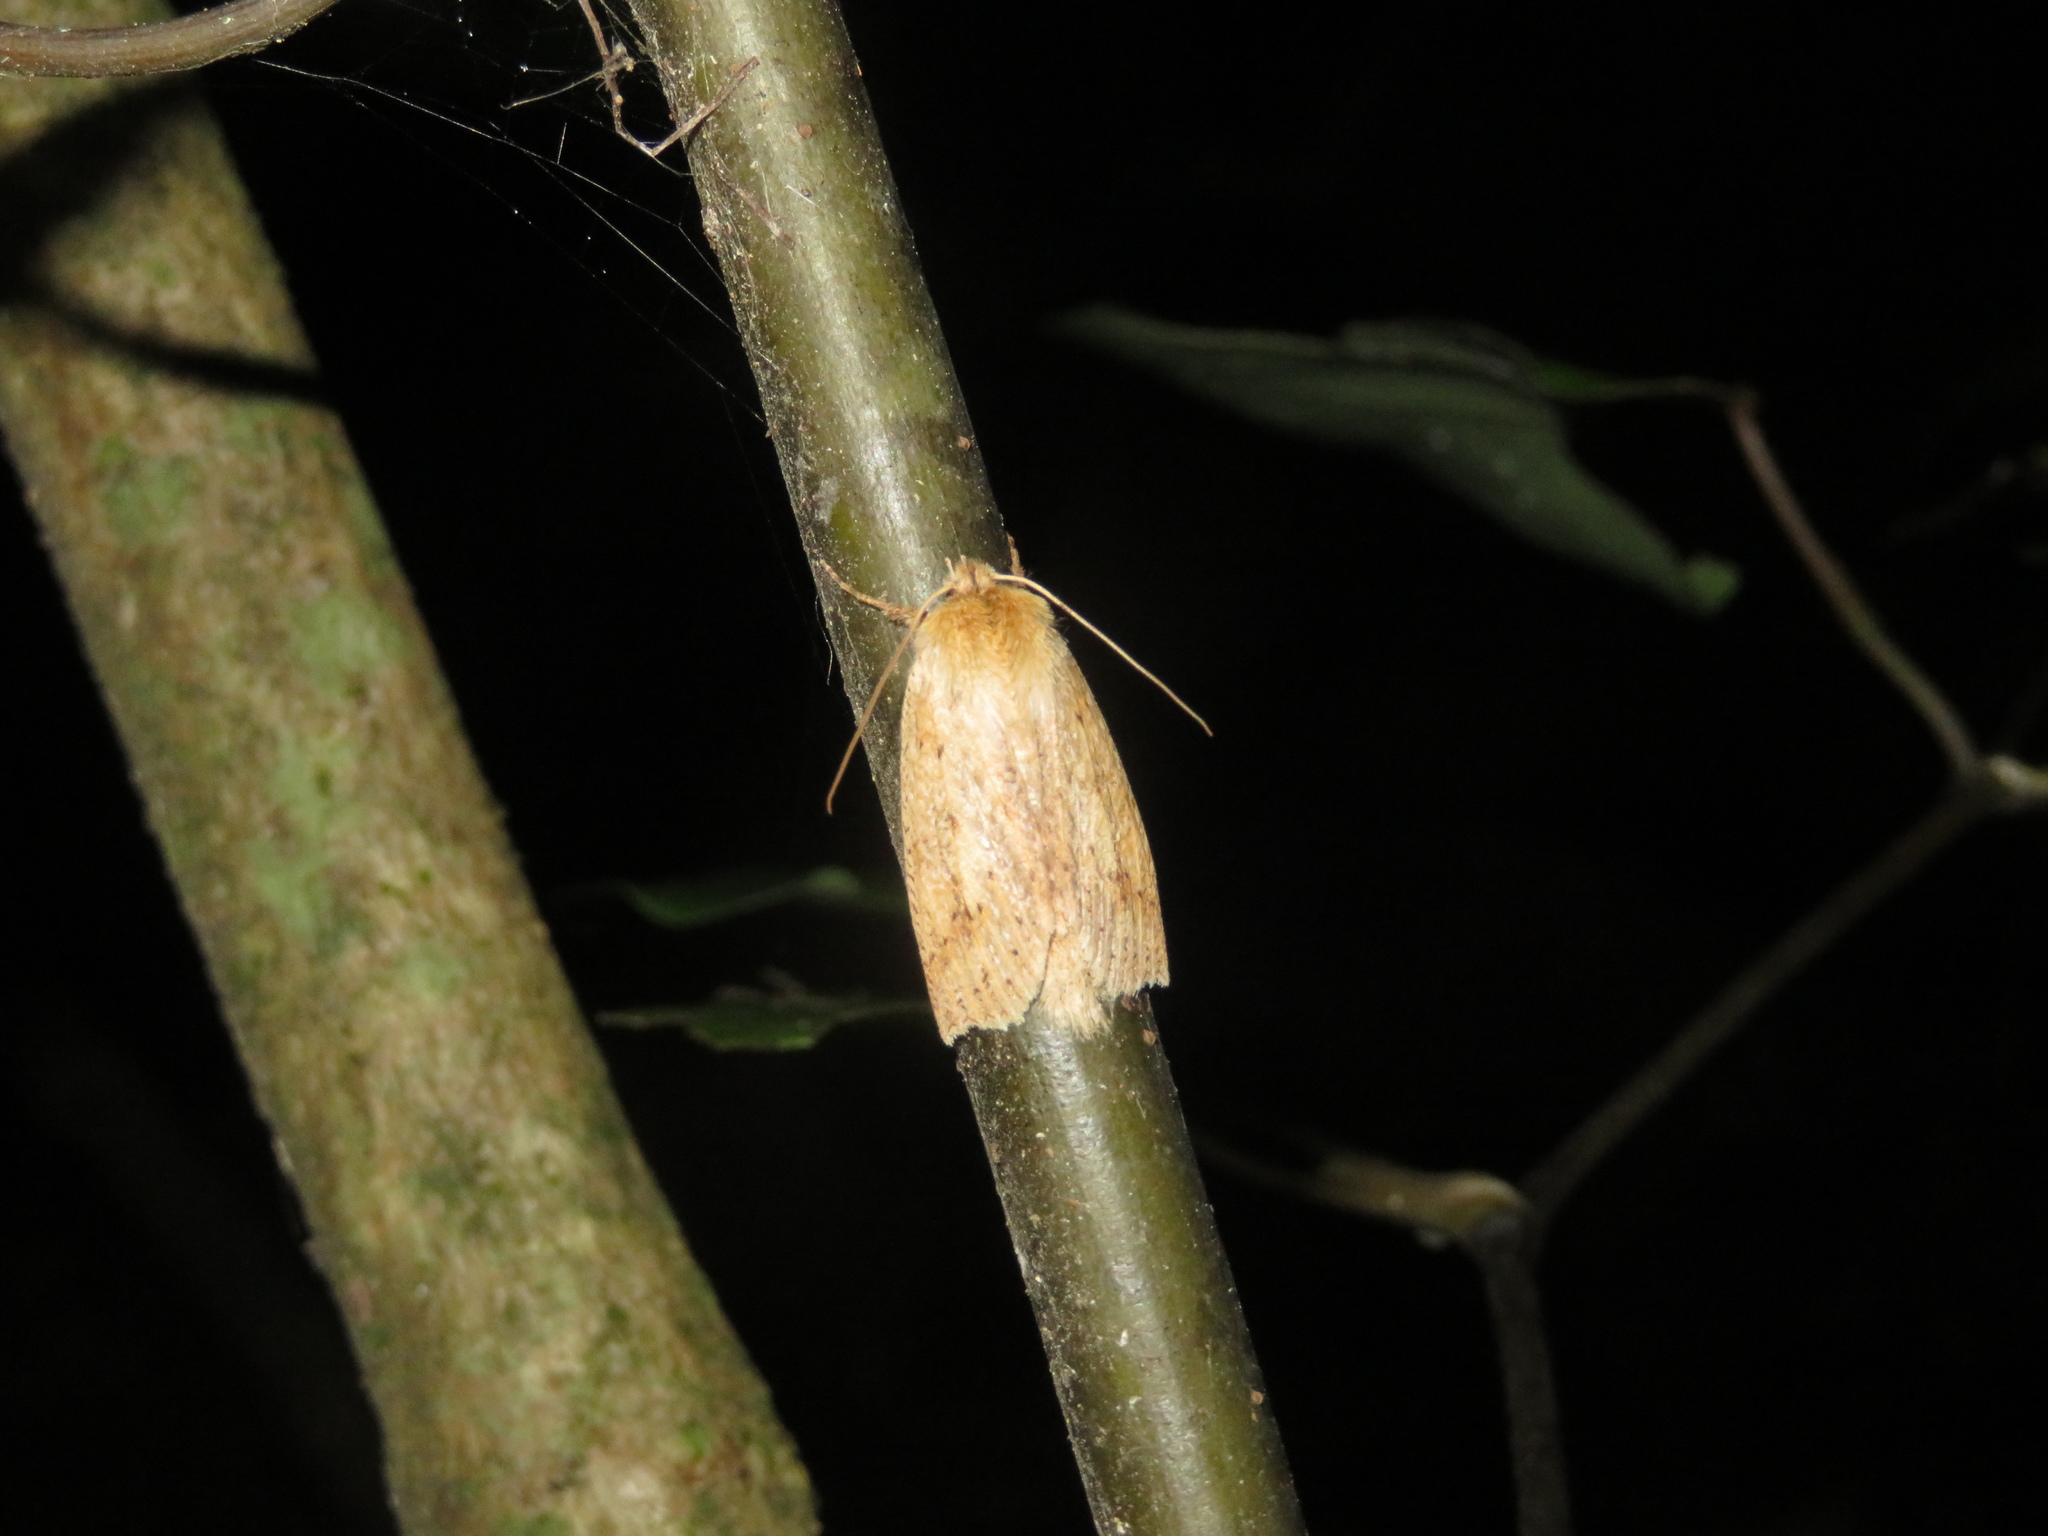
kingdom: Animalia
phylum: Arthropoda
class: Insecta
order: Lepidoptera
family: Geometridae
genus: Declana
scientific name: Declana leptomera
